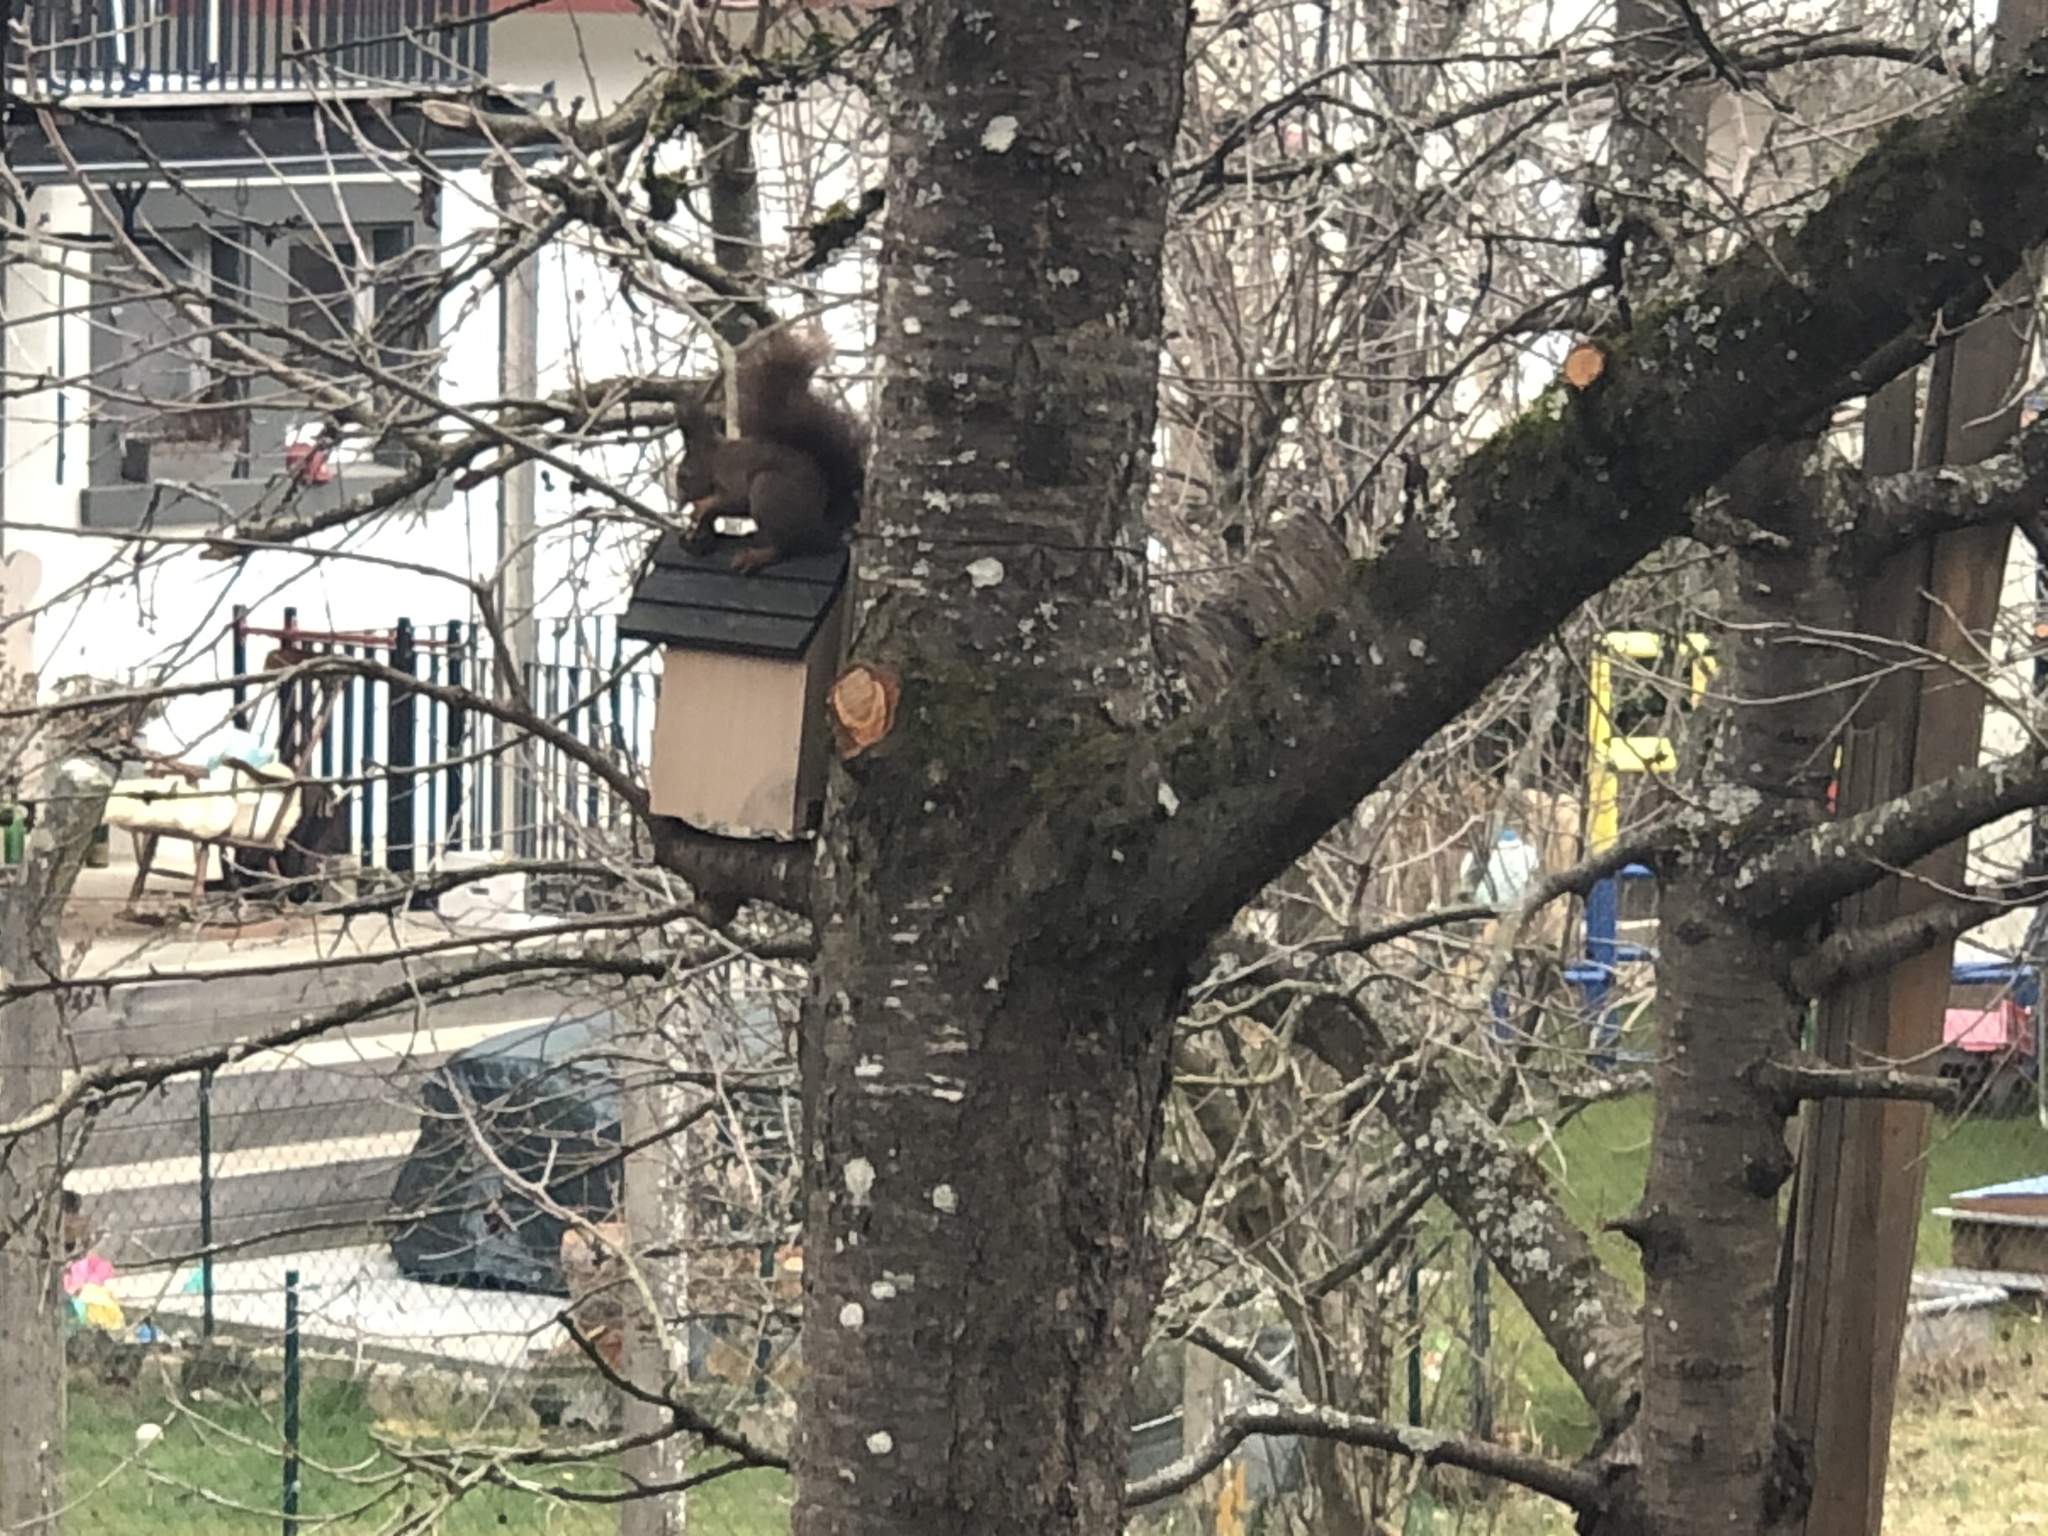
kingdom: Animalia
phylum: Chordata
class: Mammalia
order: Rodentia
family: Sciuridae
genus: Sciurus
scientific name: Sciurus vulgaris
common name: Eurasian red squirrel
